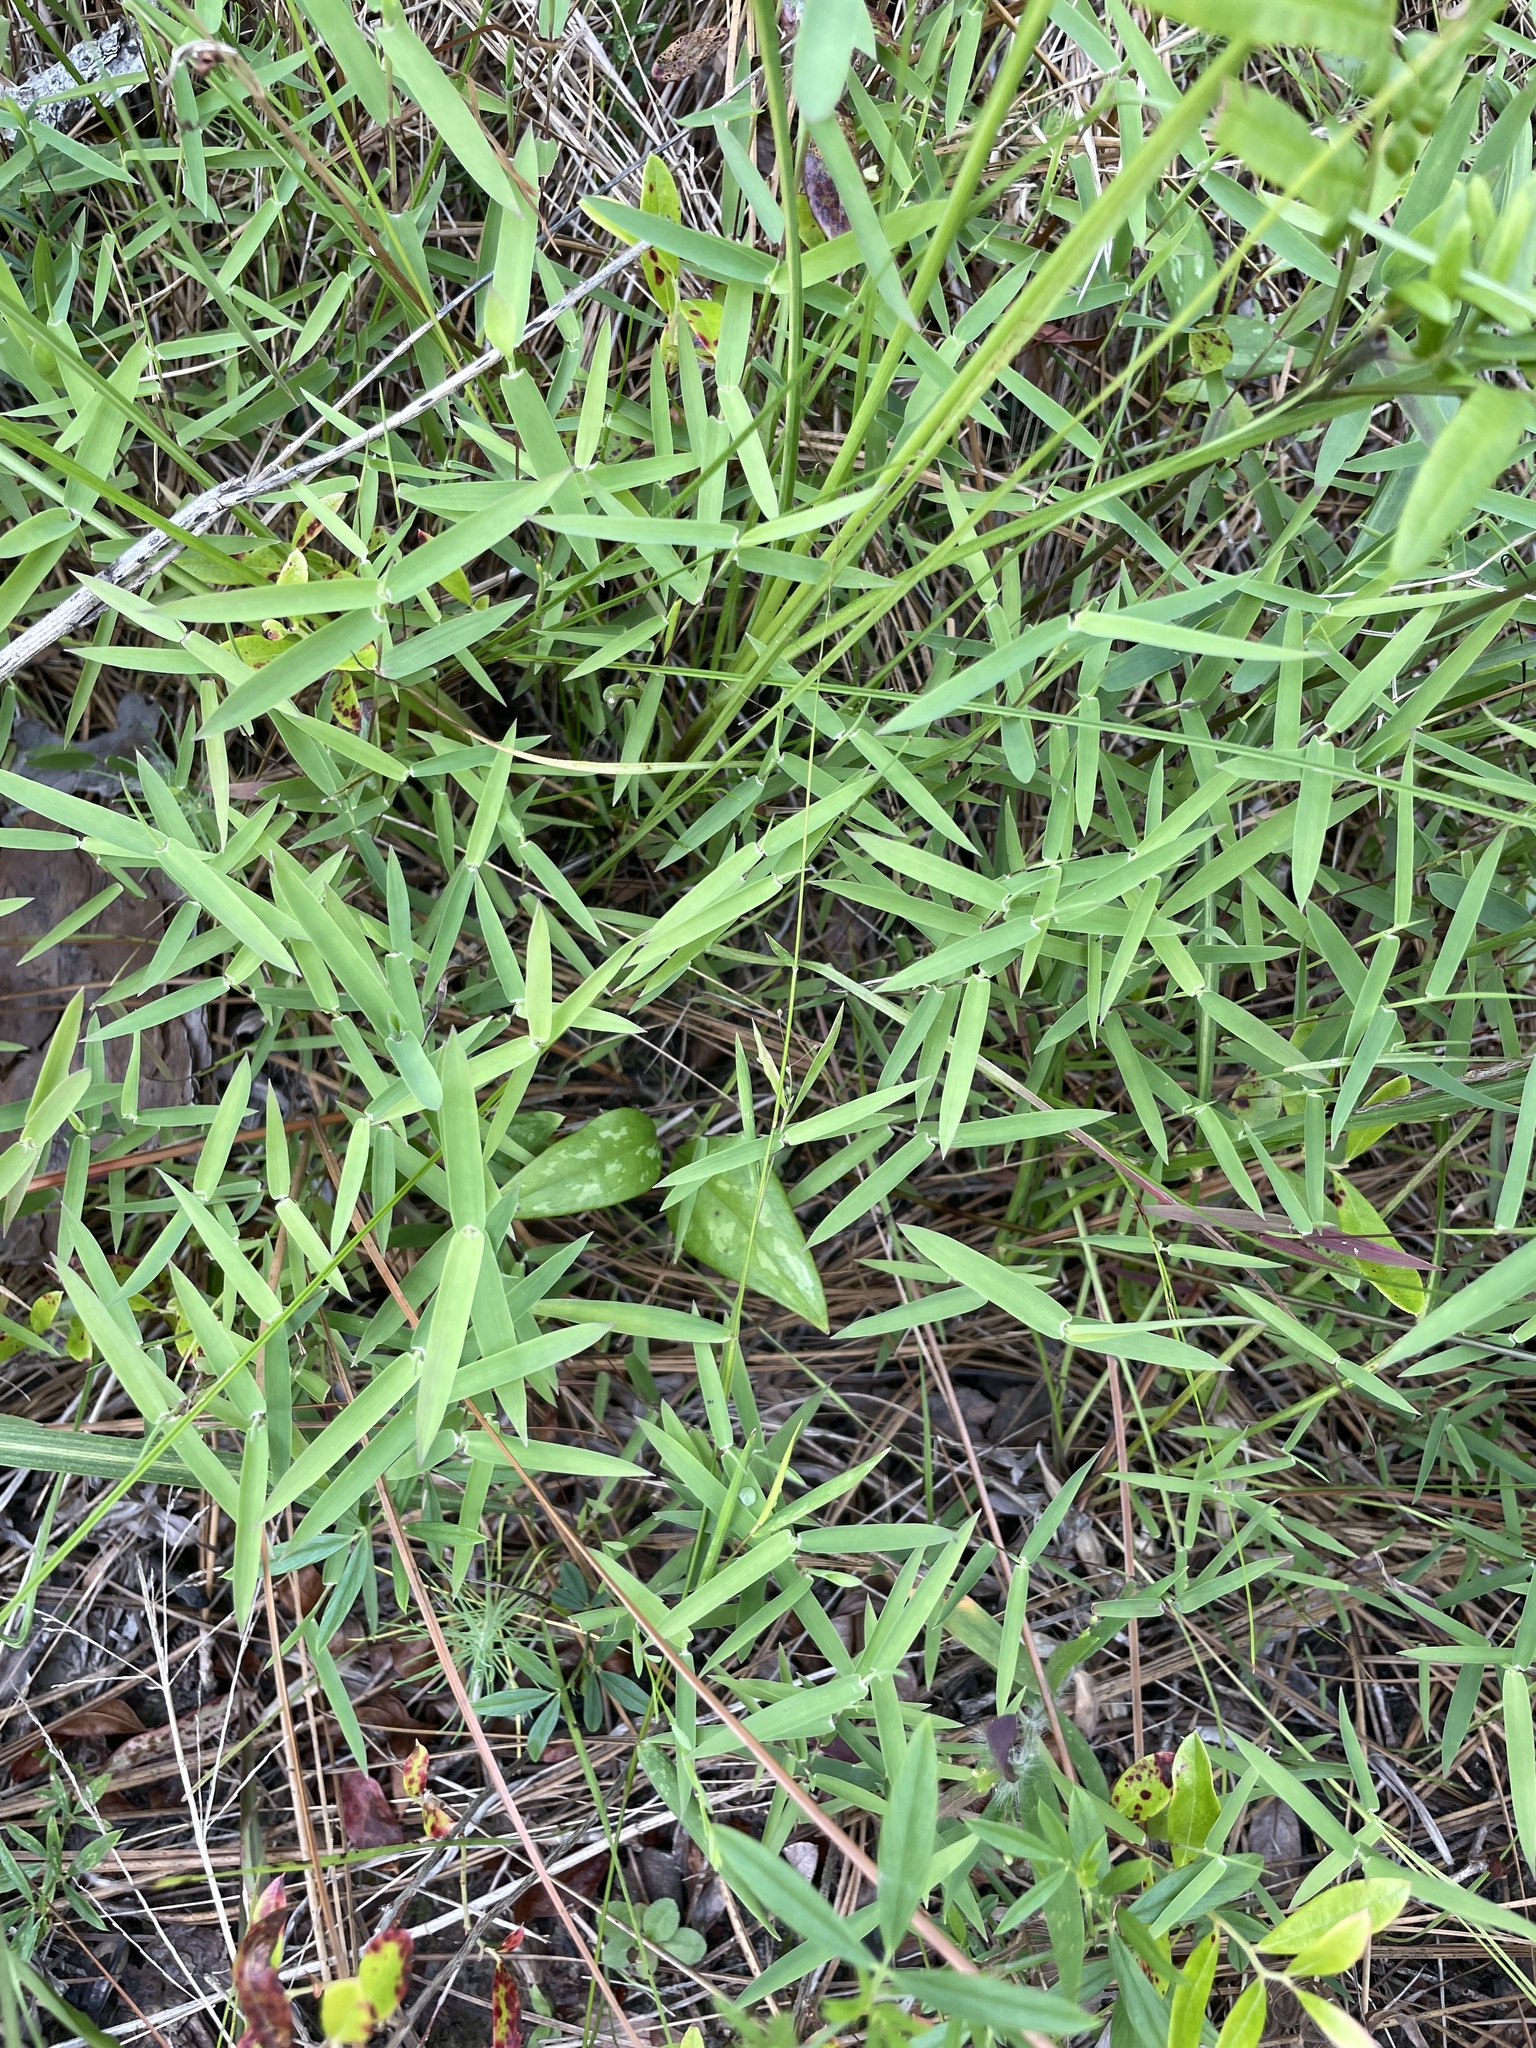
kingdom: Plantae
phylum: Tracheophyta
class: Liliopsida
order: Poales
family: Poaceae
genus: Gymnopogon
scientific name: Gymnopogon brevifolius
